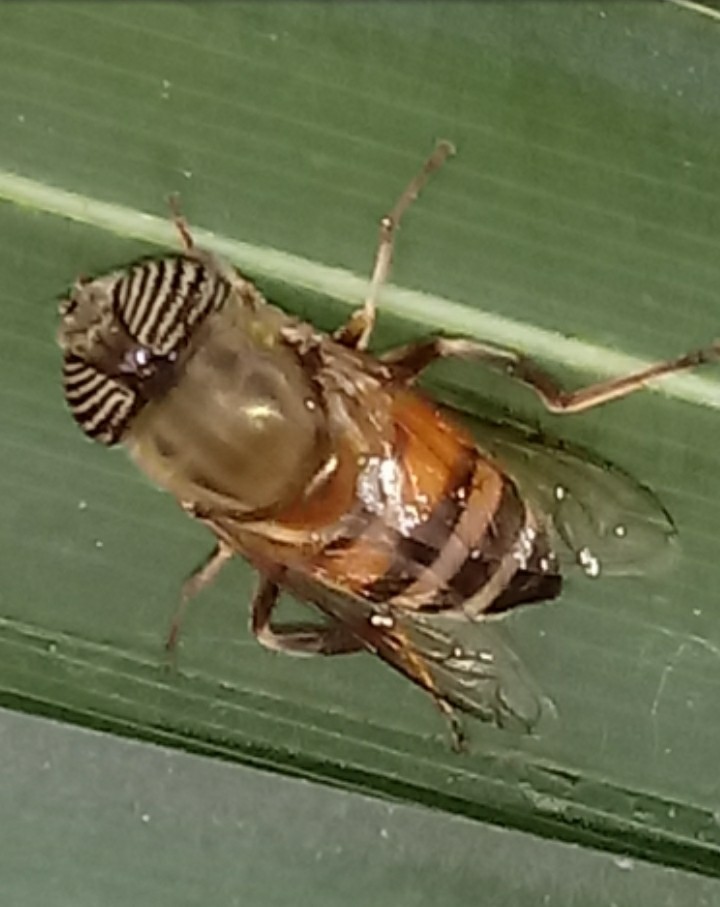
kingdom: Animalia
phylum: Arthropoda
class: Insecta
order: Diptera
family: Syrphidae
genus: Eristalinus
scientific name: Eristalinus taeniops
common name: Syrphid fly
